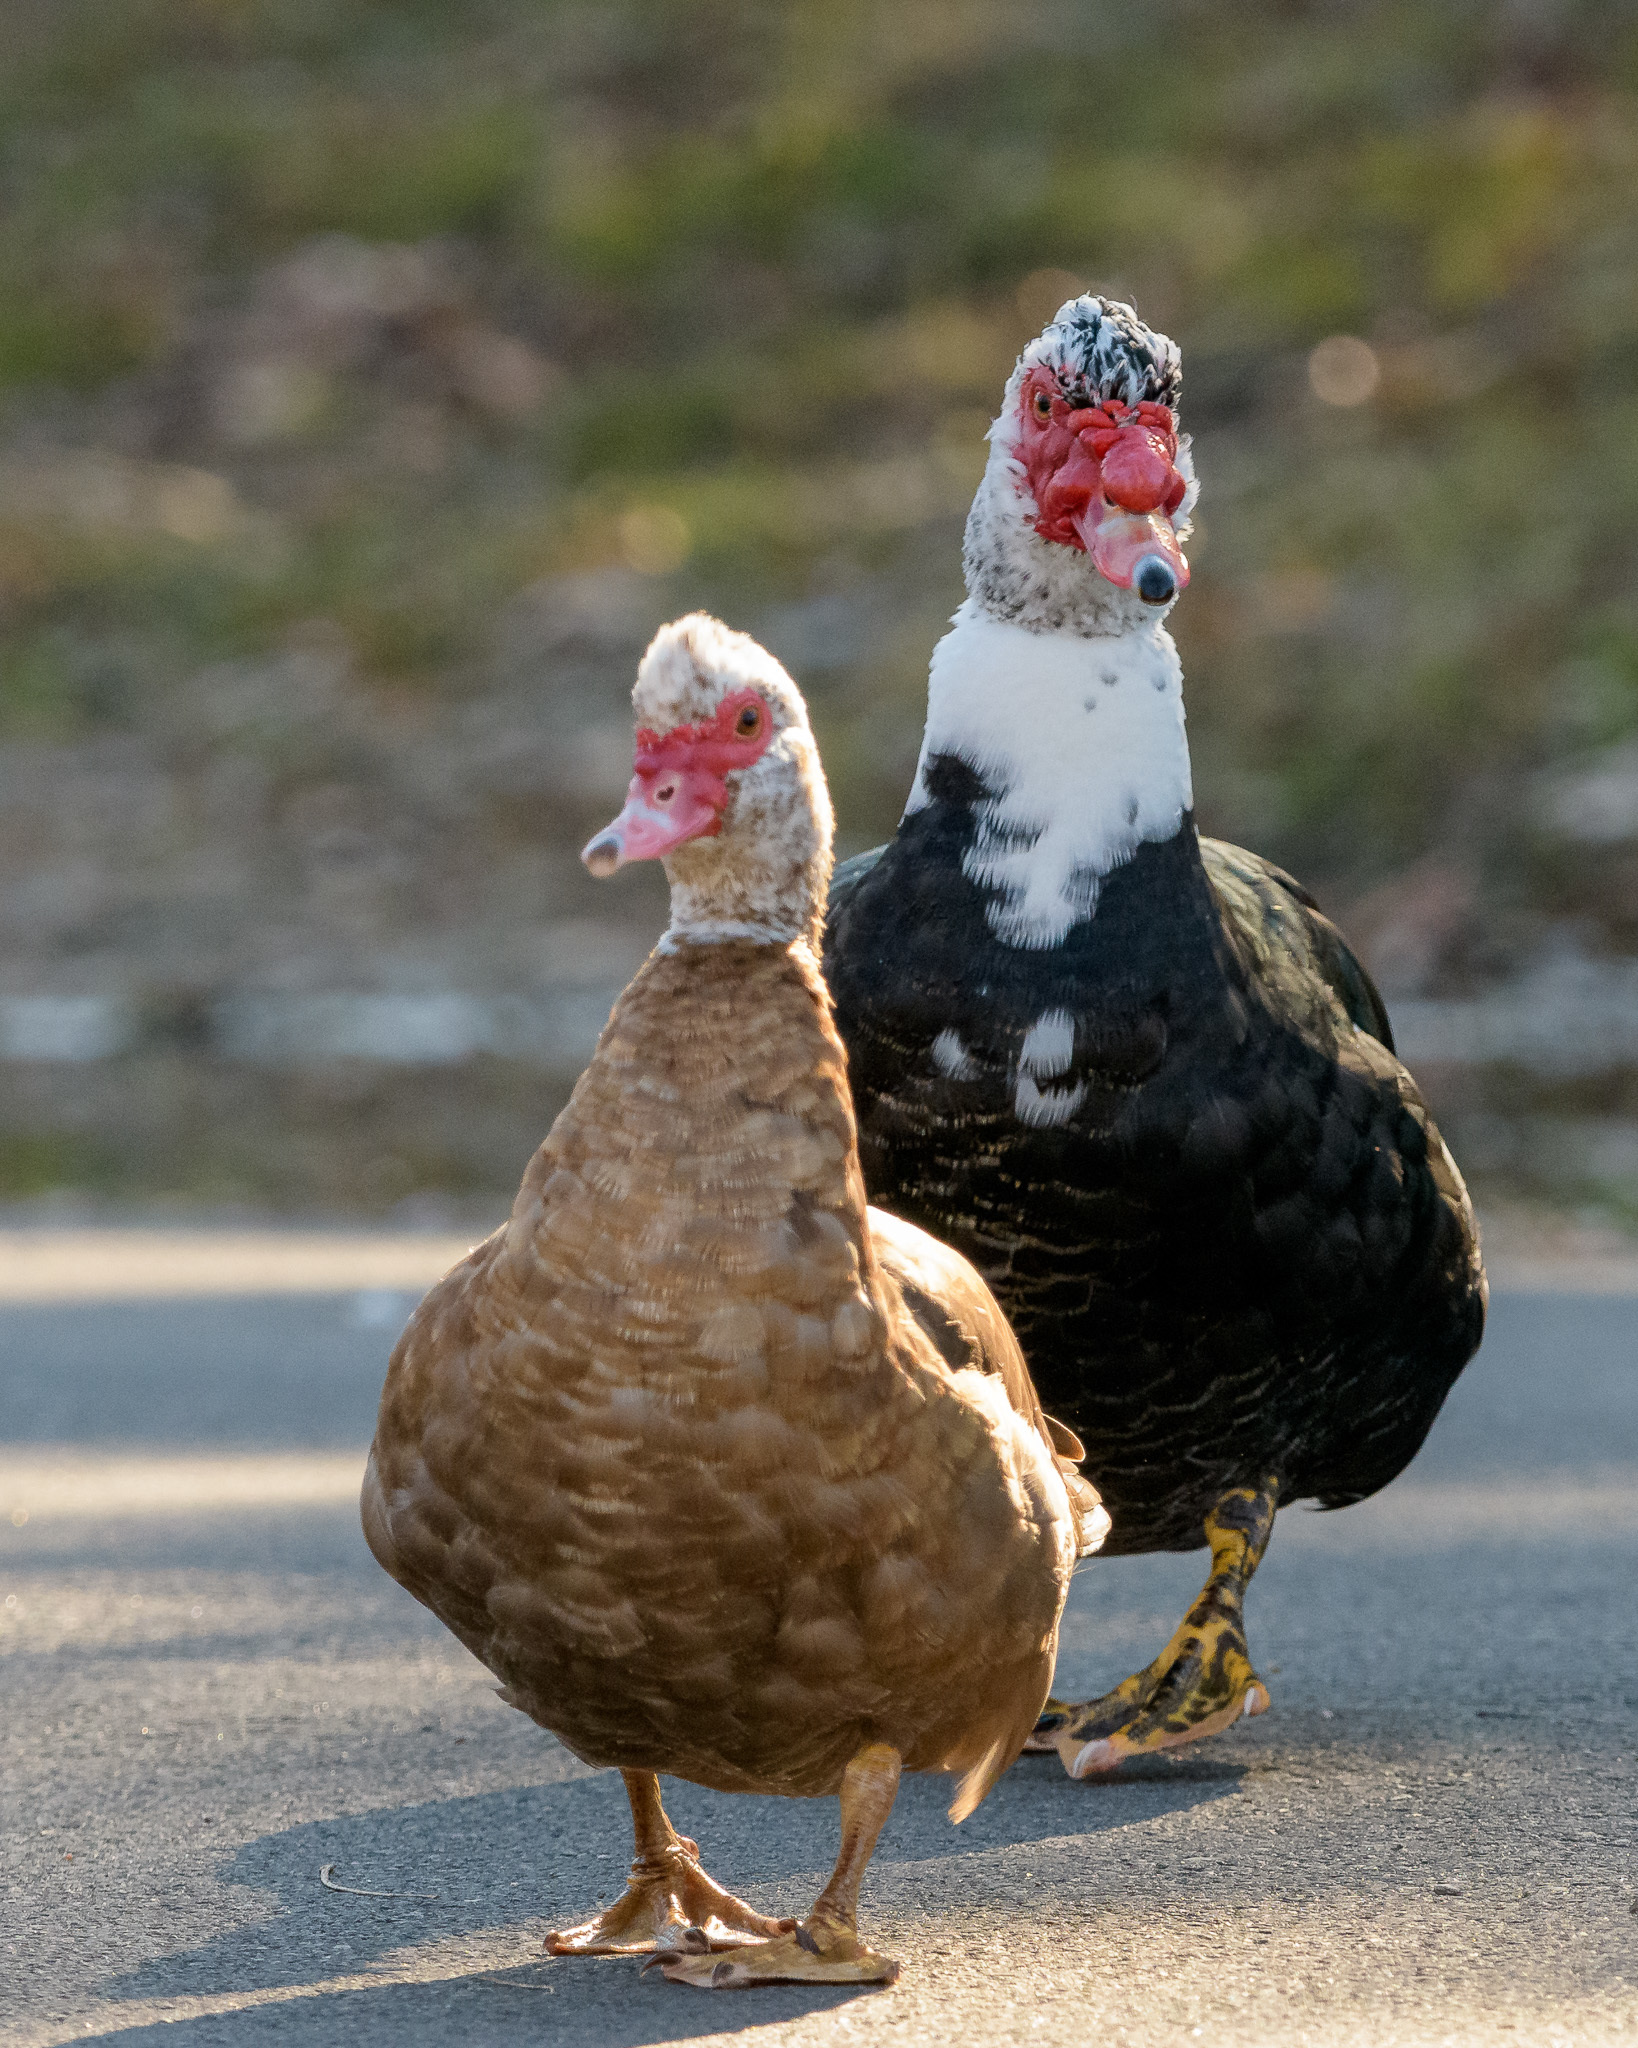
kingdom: Animalia
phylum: Chordata
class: Aves
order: Anseriformes
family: Anatidae
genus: Cairina
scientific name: Cairina moschata
